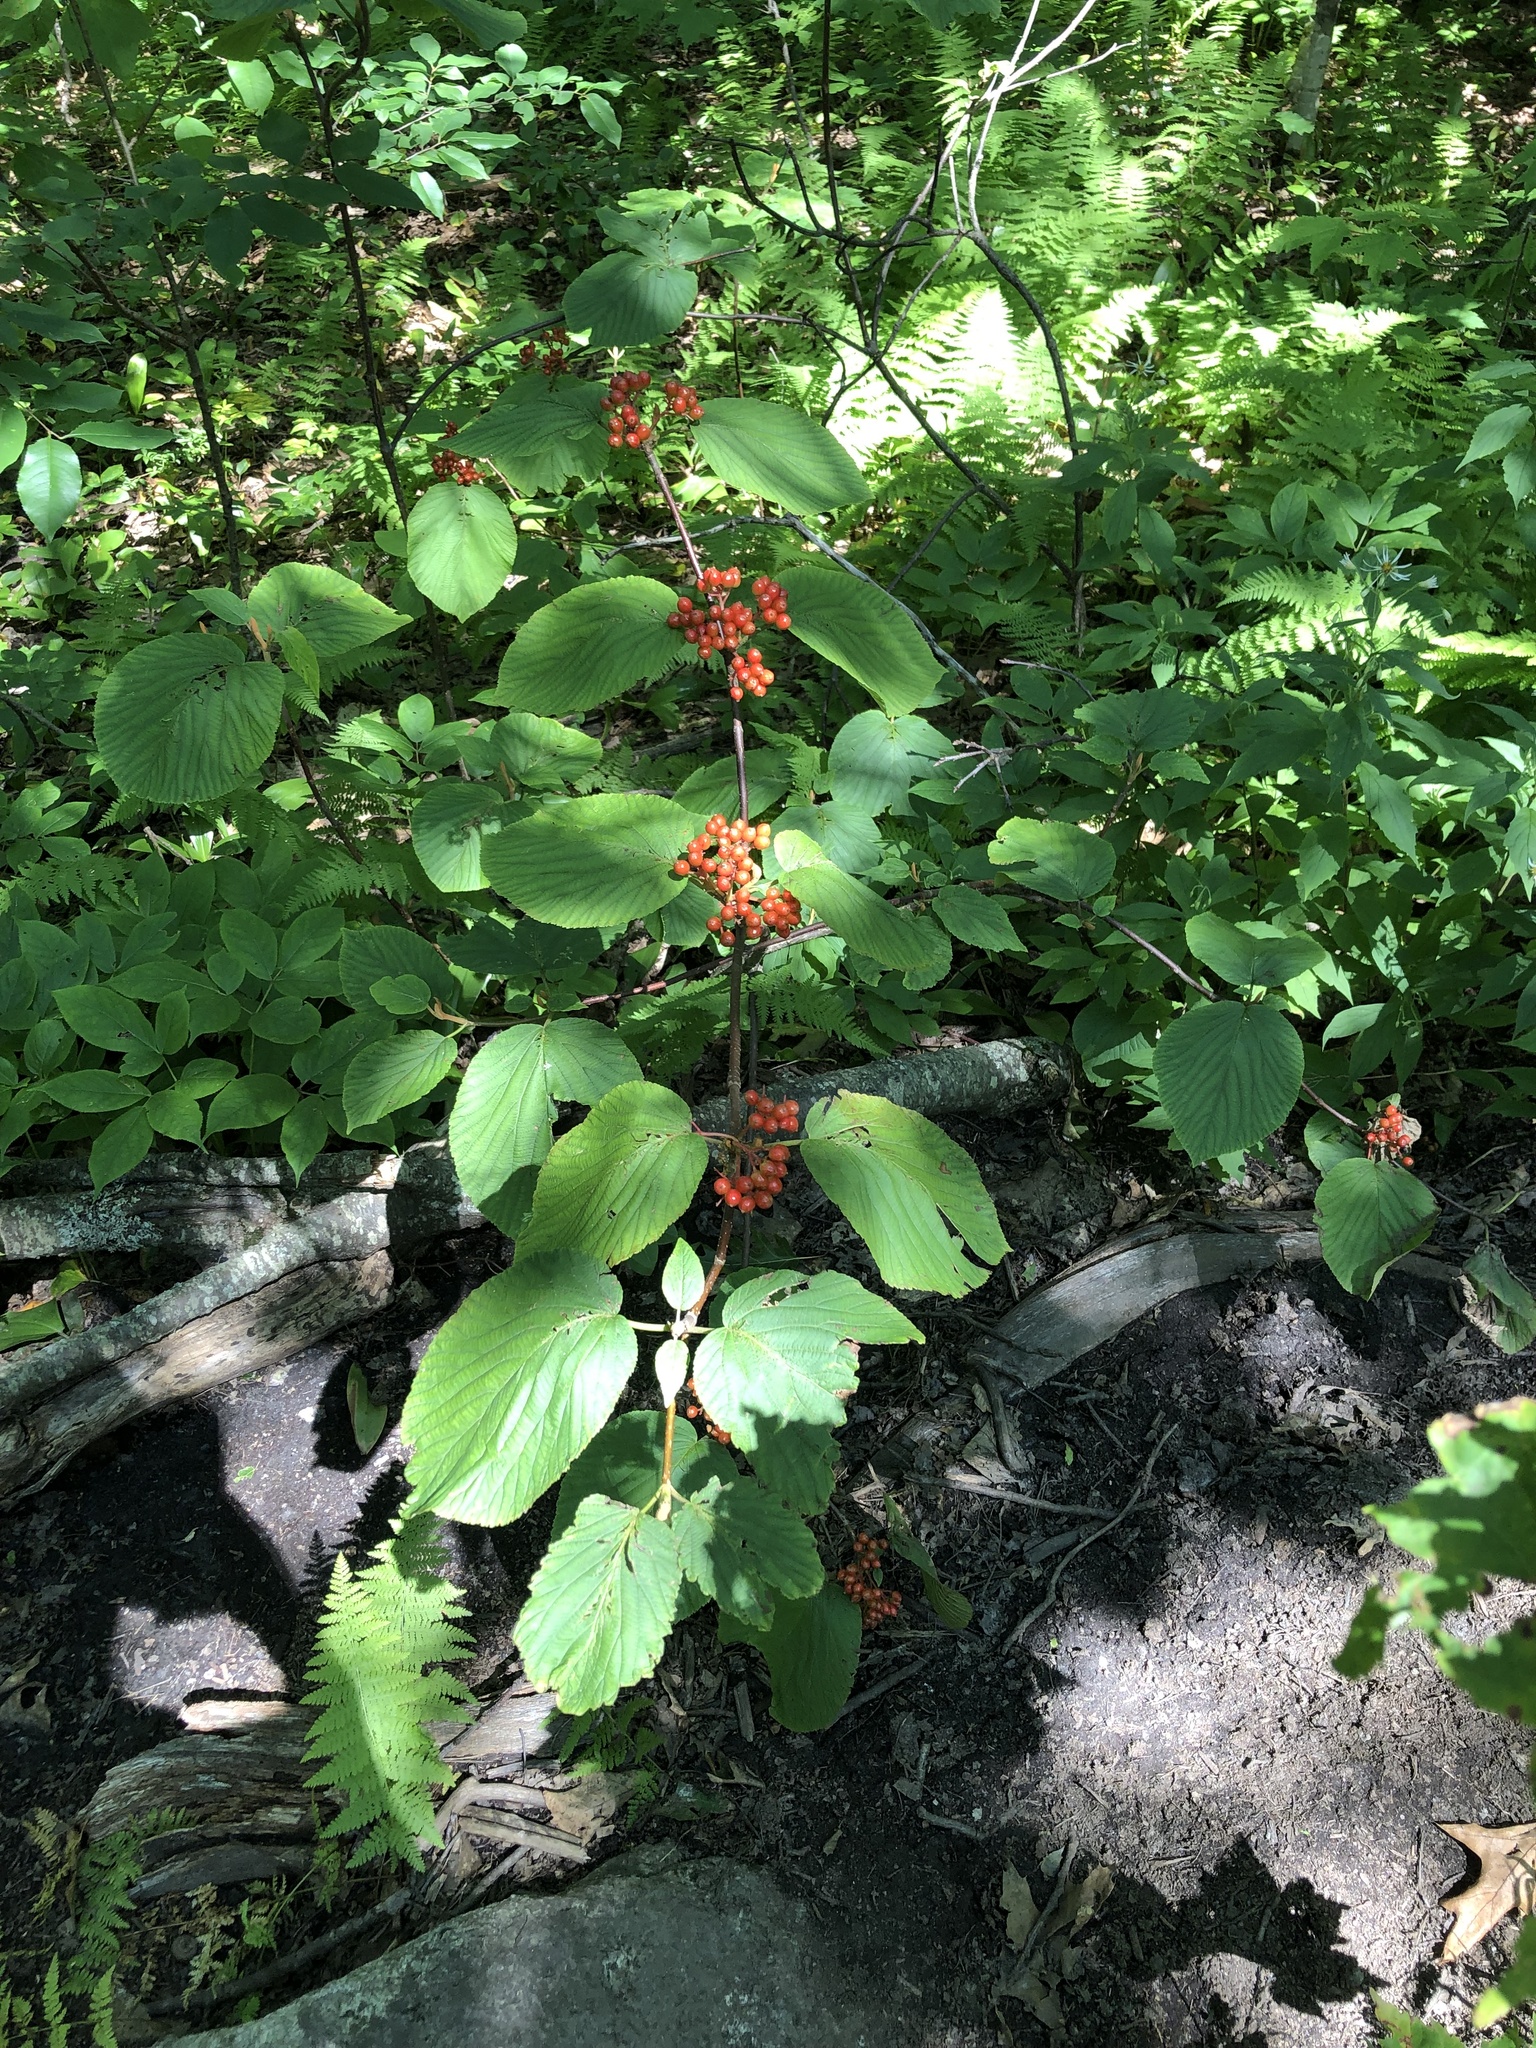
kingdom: Plantae
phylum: Tracheophyta
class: Magnoliopsida
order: Dipsacales
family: Viburnaceae
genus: Viburnum
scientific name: Viburnum lantanoides
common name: Hobblebush
